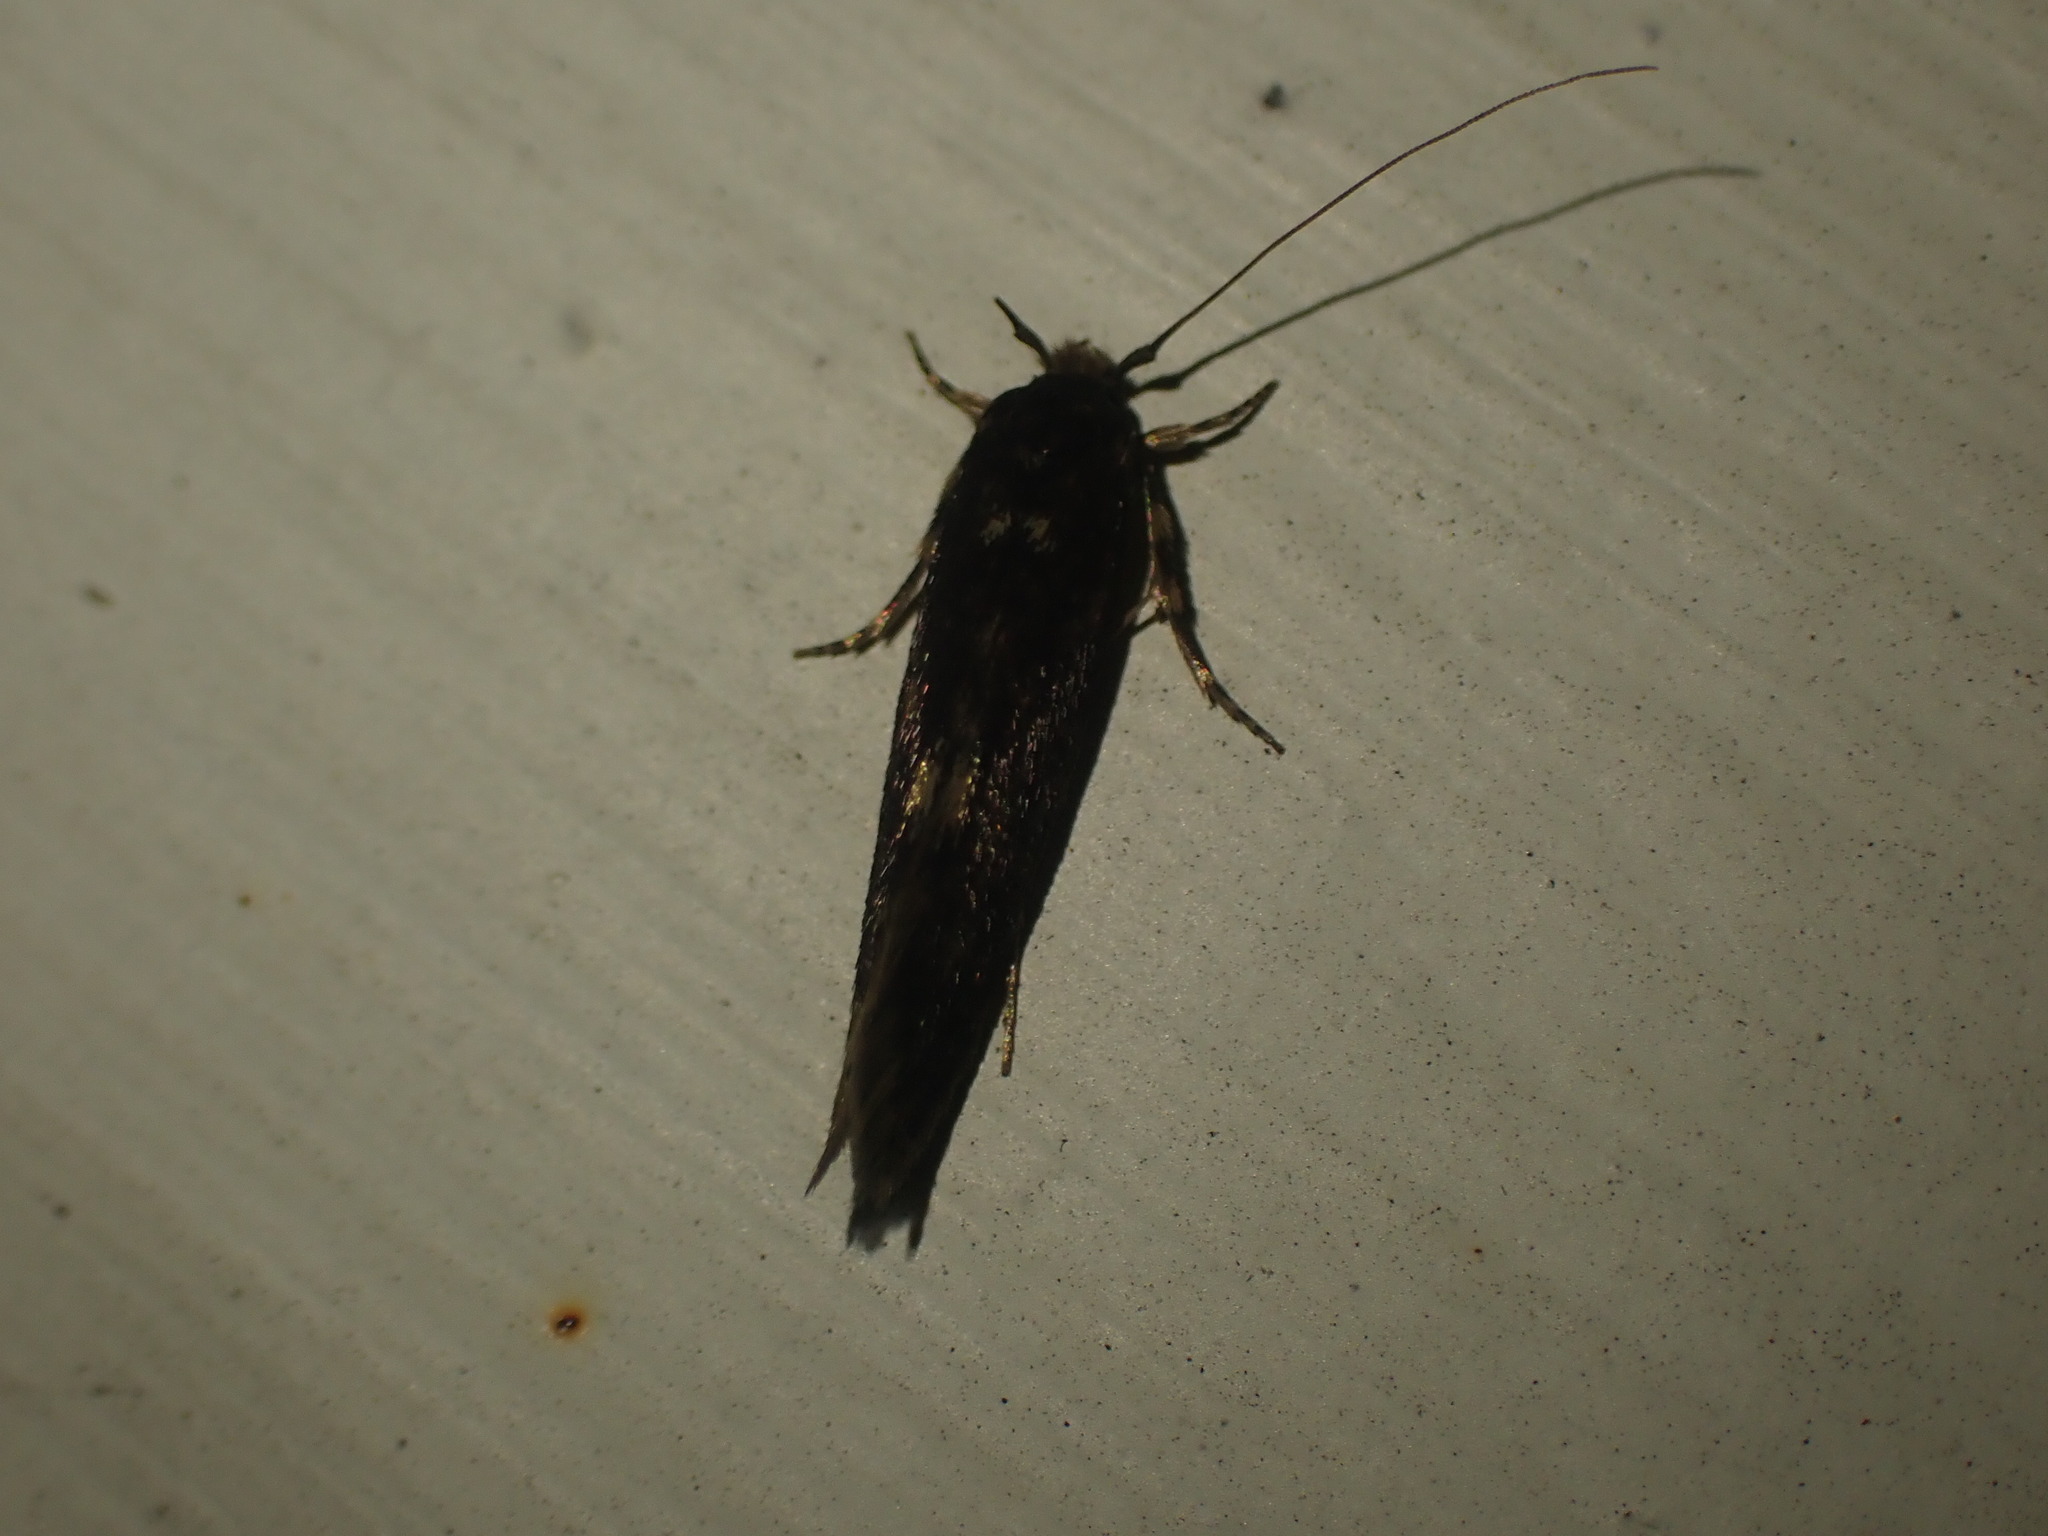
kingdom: Animalia
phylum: Arthropoda
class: Insecta
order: Lepidoptera
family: Tineidae
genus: Opogona
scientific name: Opogona omoscopa
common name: Moth
